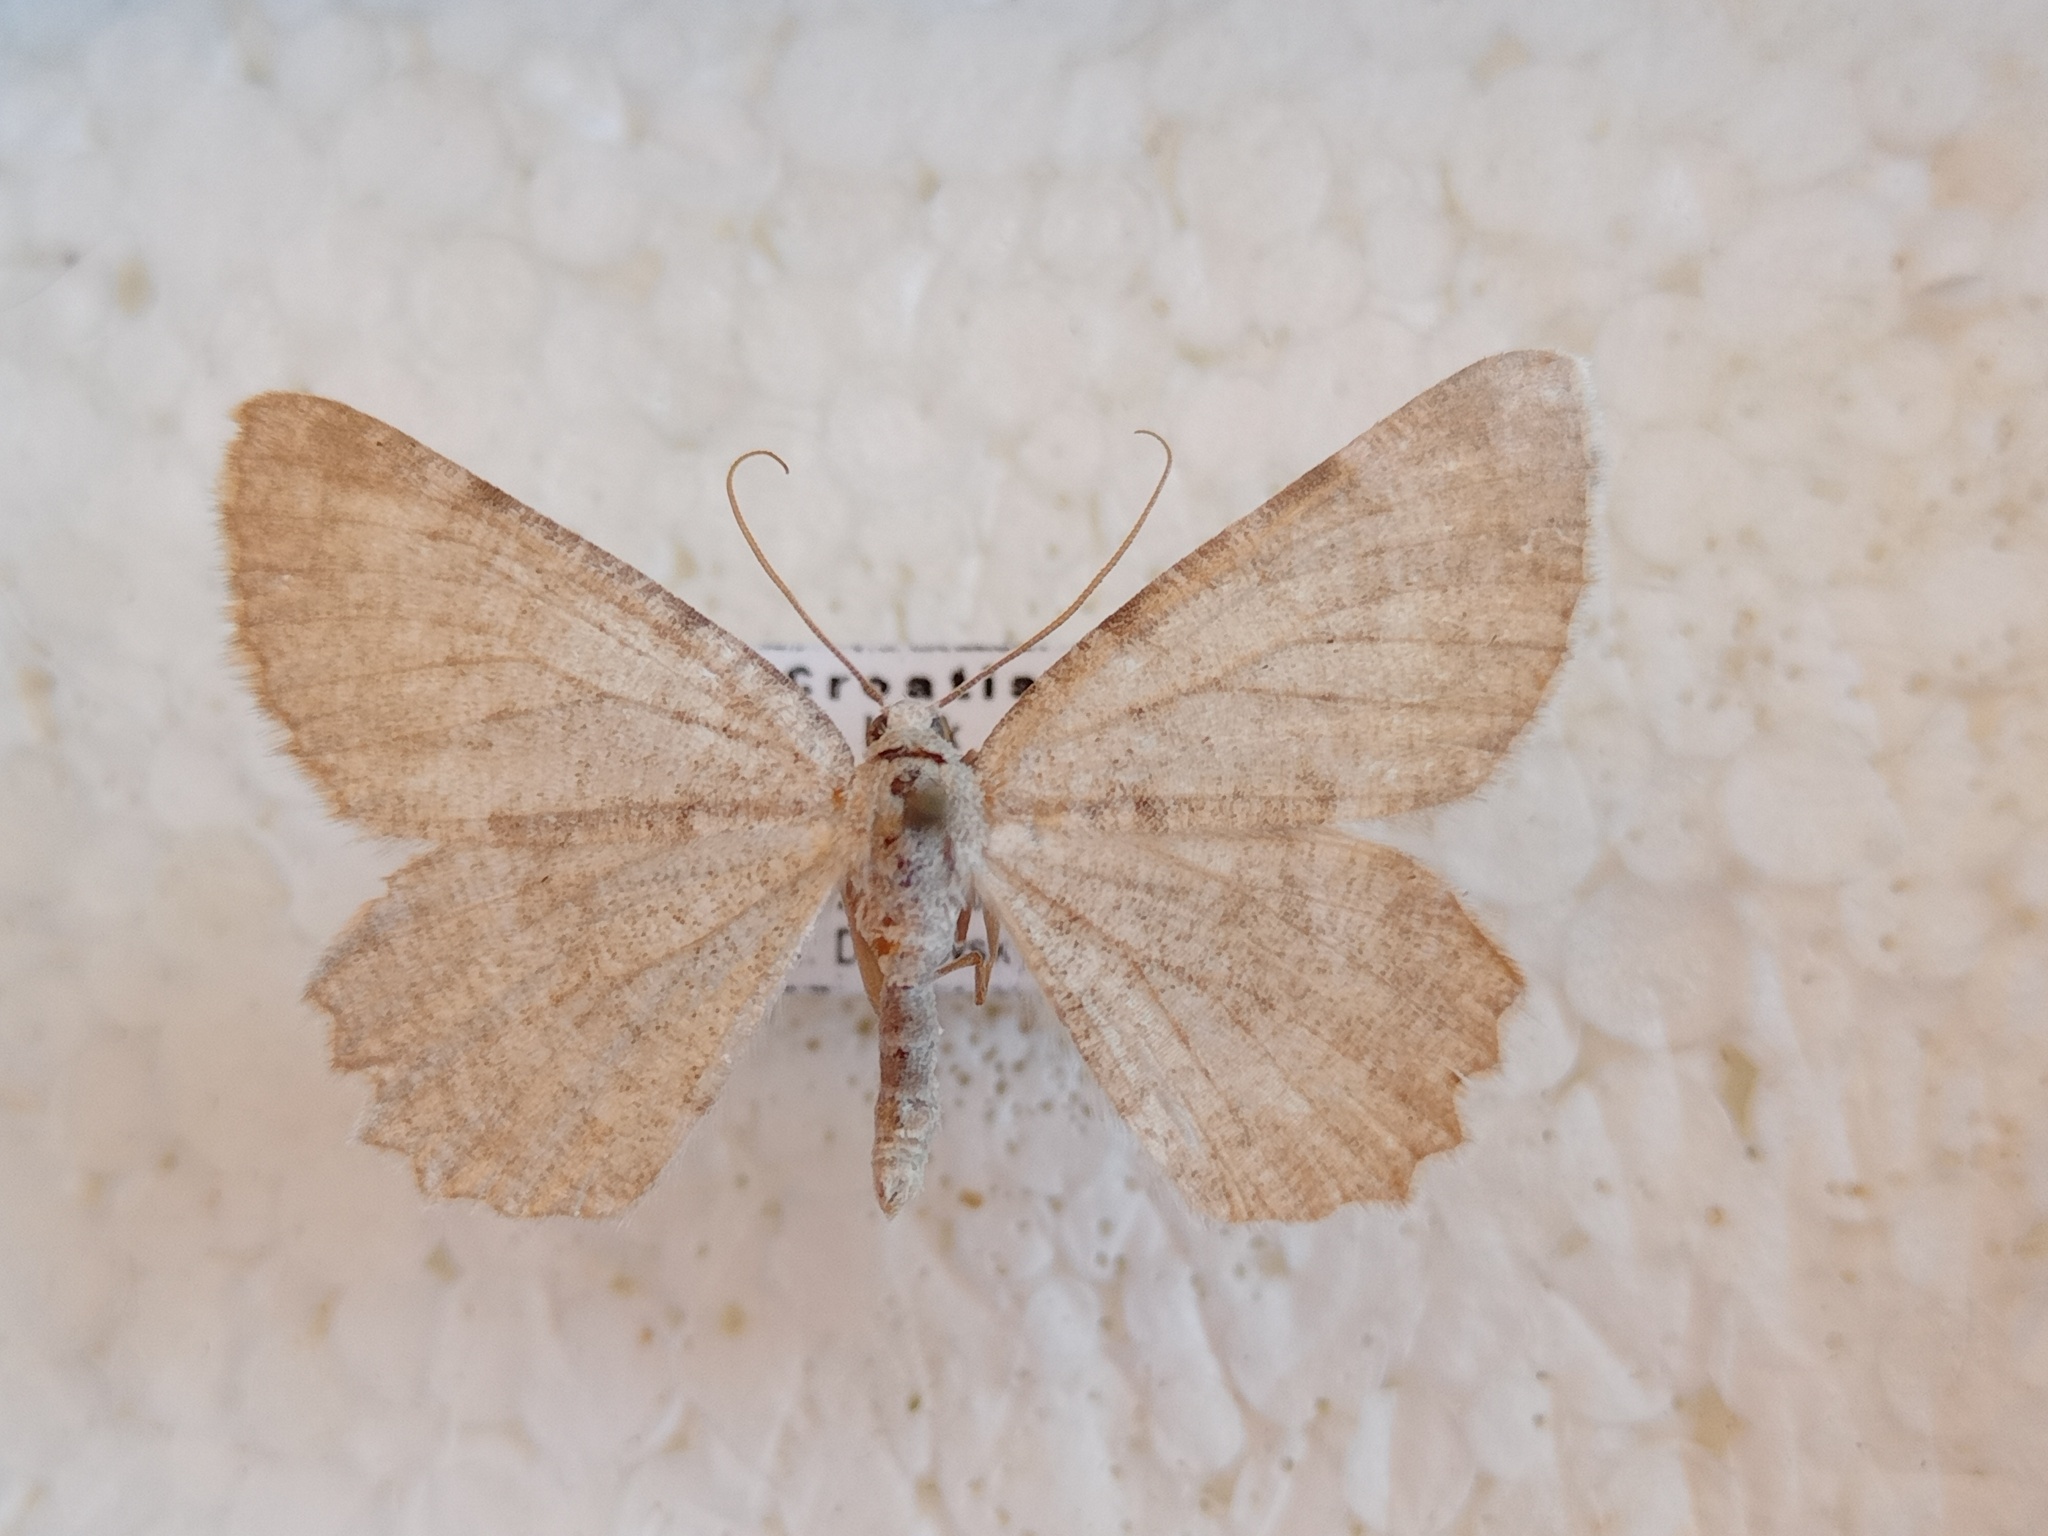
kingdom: Animalia
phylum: Arthropoda
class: Insecta
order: Lepidoptera
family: Geometridae
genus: Charissa
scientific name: Charissa supinaria
